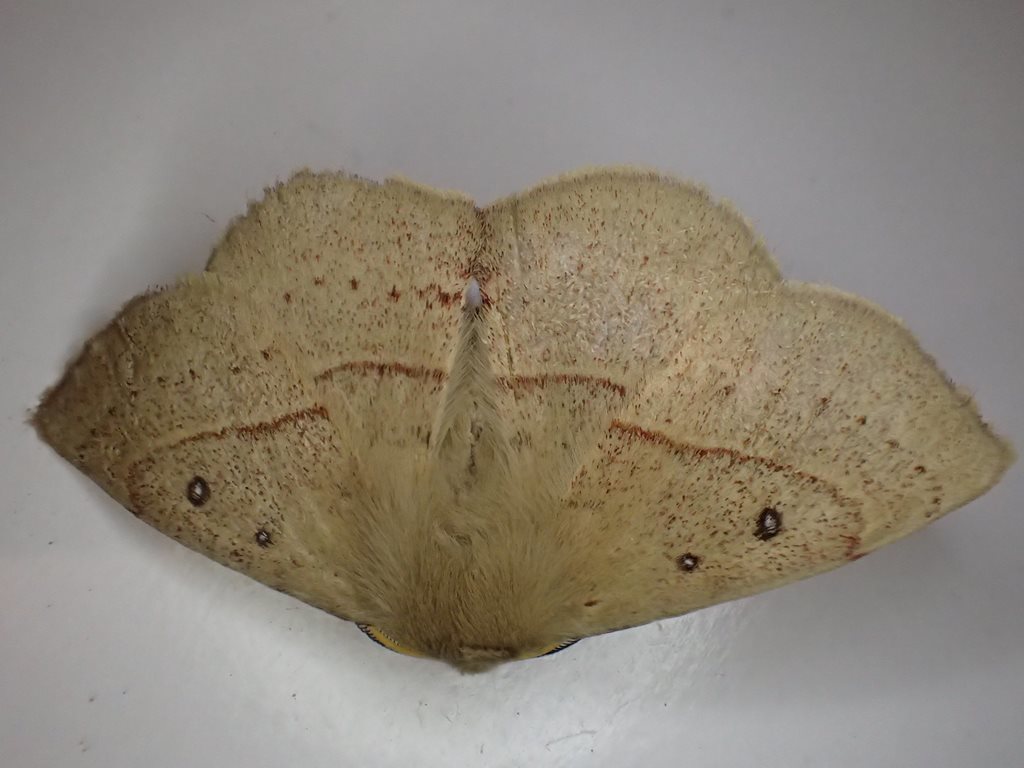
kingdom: Animalia
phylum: Arthropoda
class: Insecta
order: Lepidoptera
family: Anthelidae
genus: Anthela
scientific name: Anthela acuta
